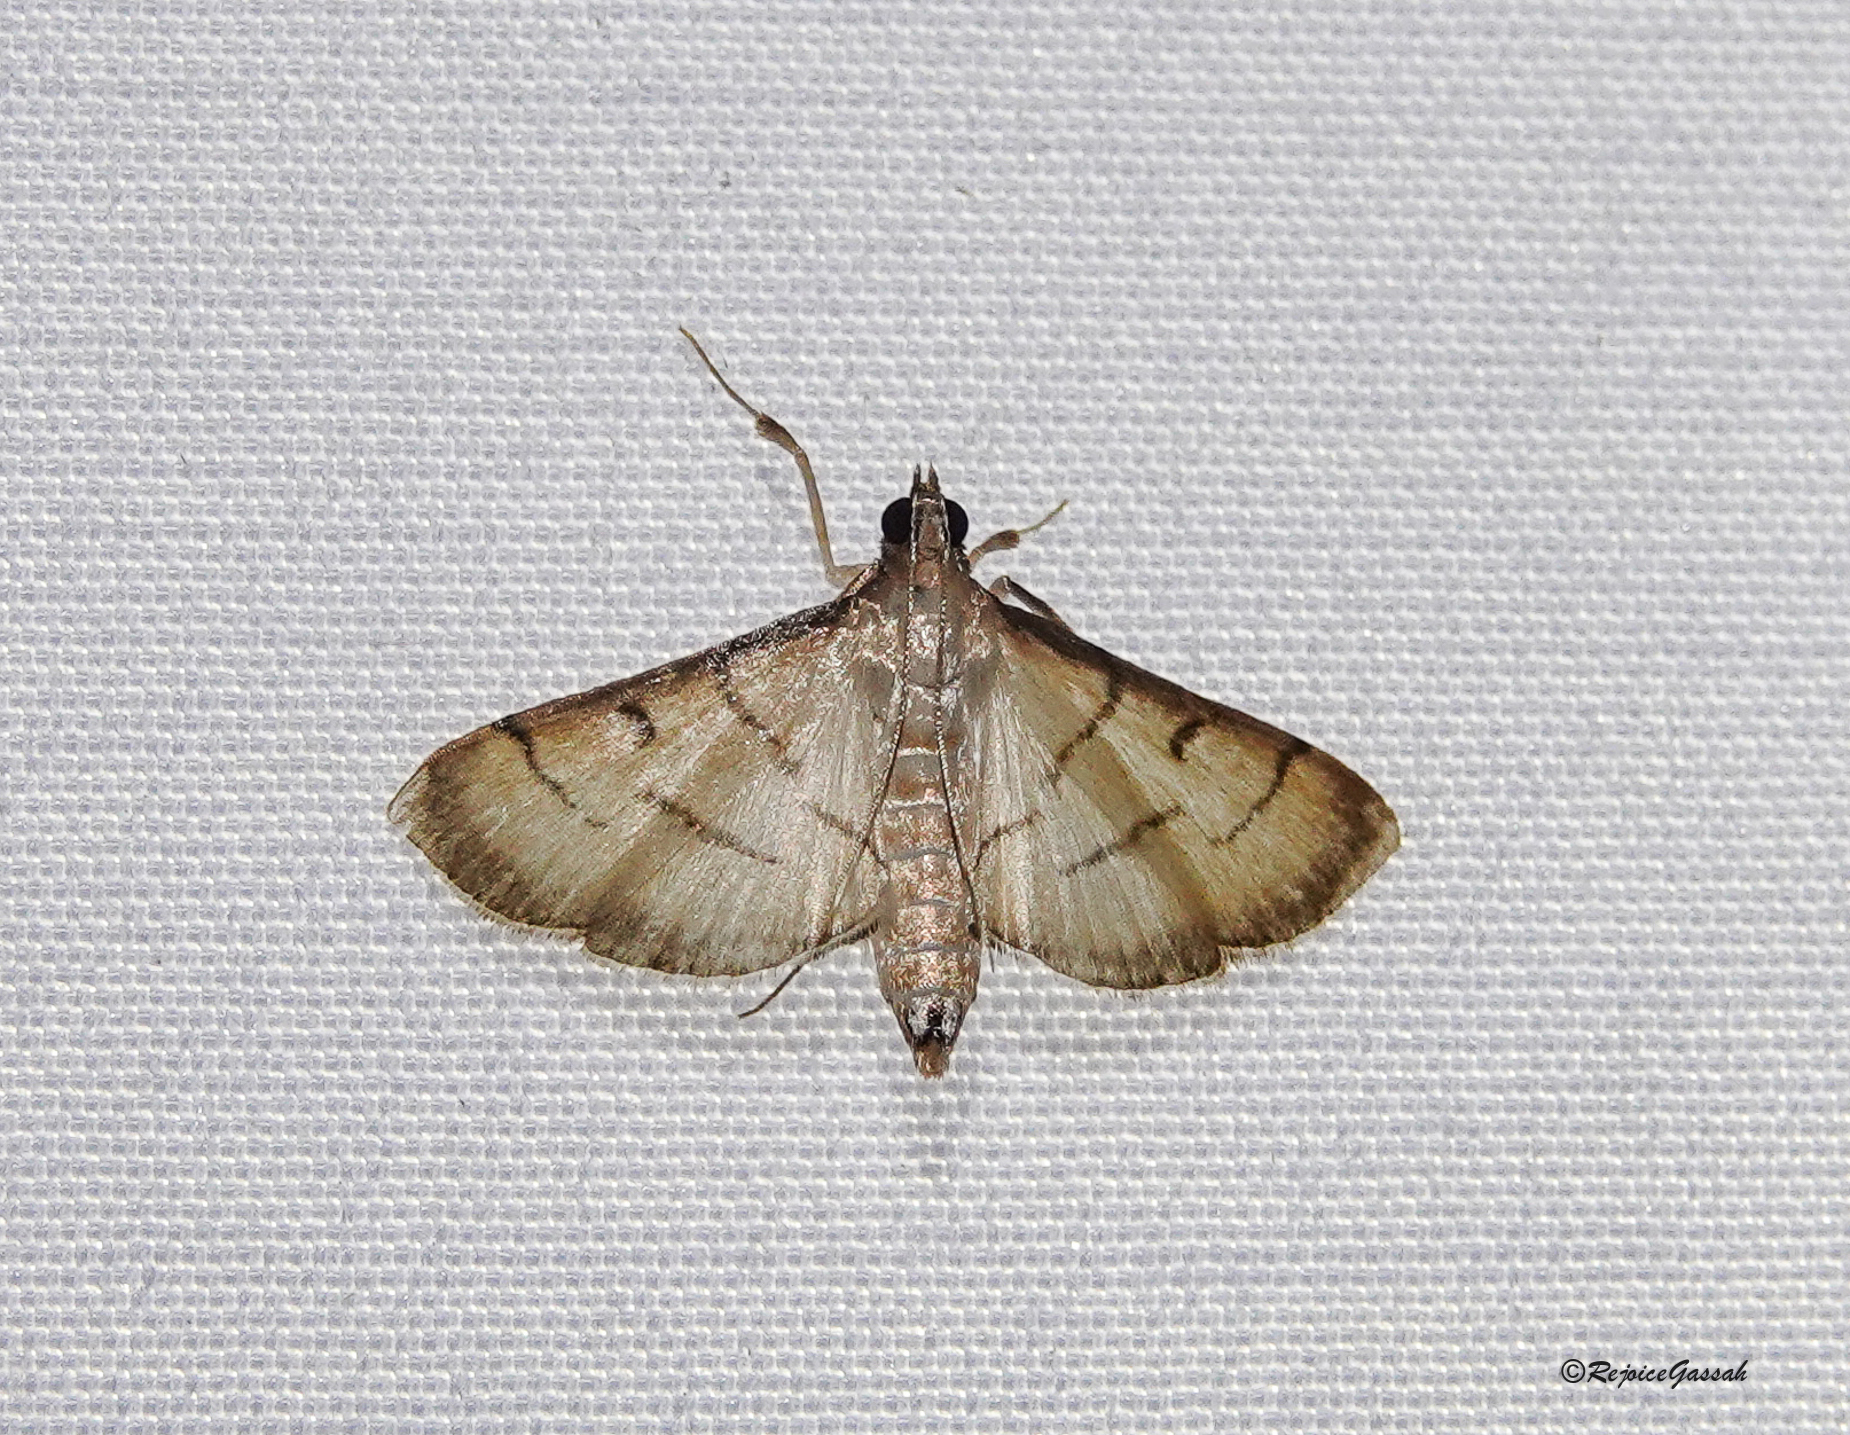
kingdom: Animalia
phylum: Arthropoda
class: Insecta
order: Lepidoptera
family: Crambidae
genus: Cnaphalocrocis
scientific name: Cnaphalocrocis patnalis
